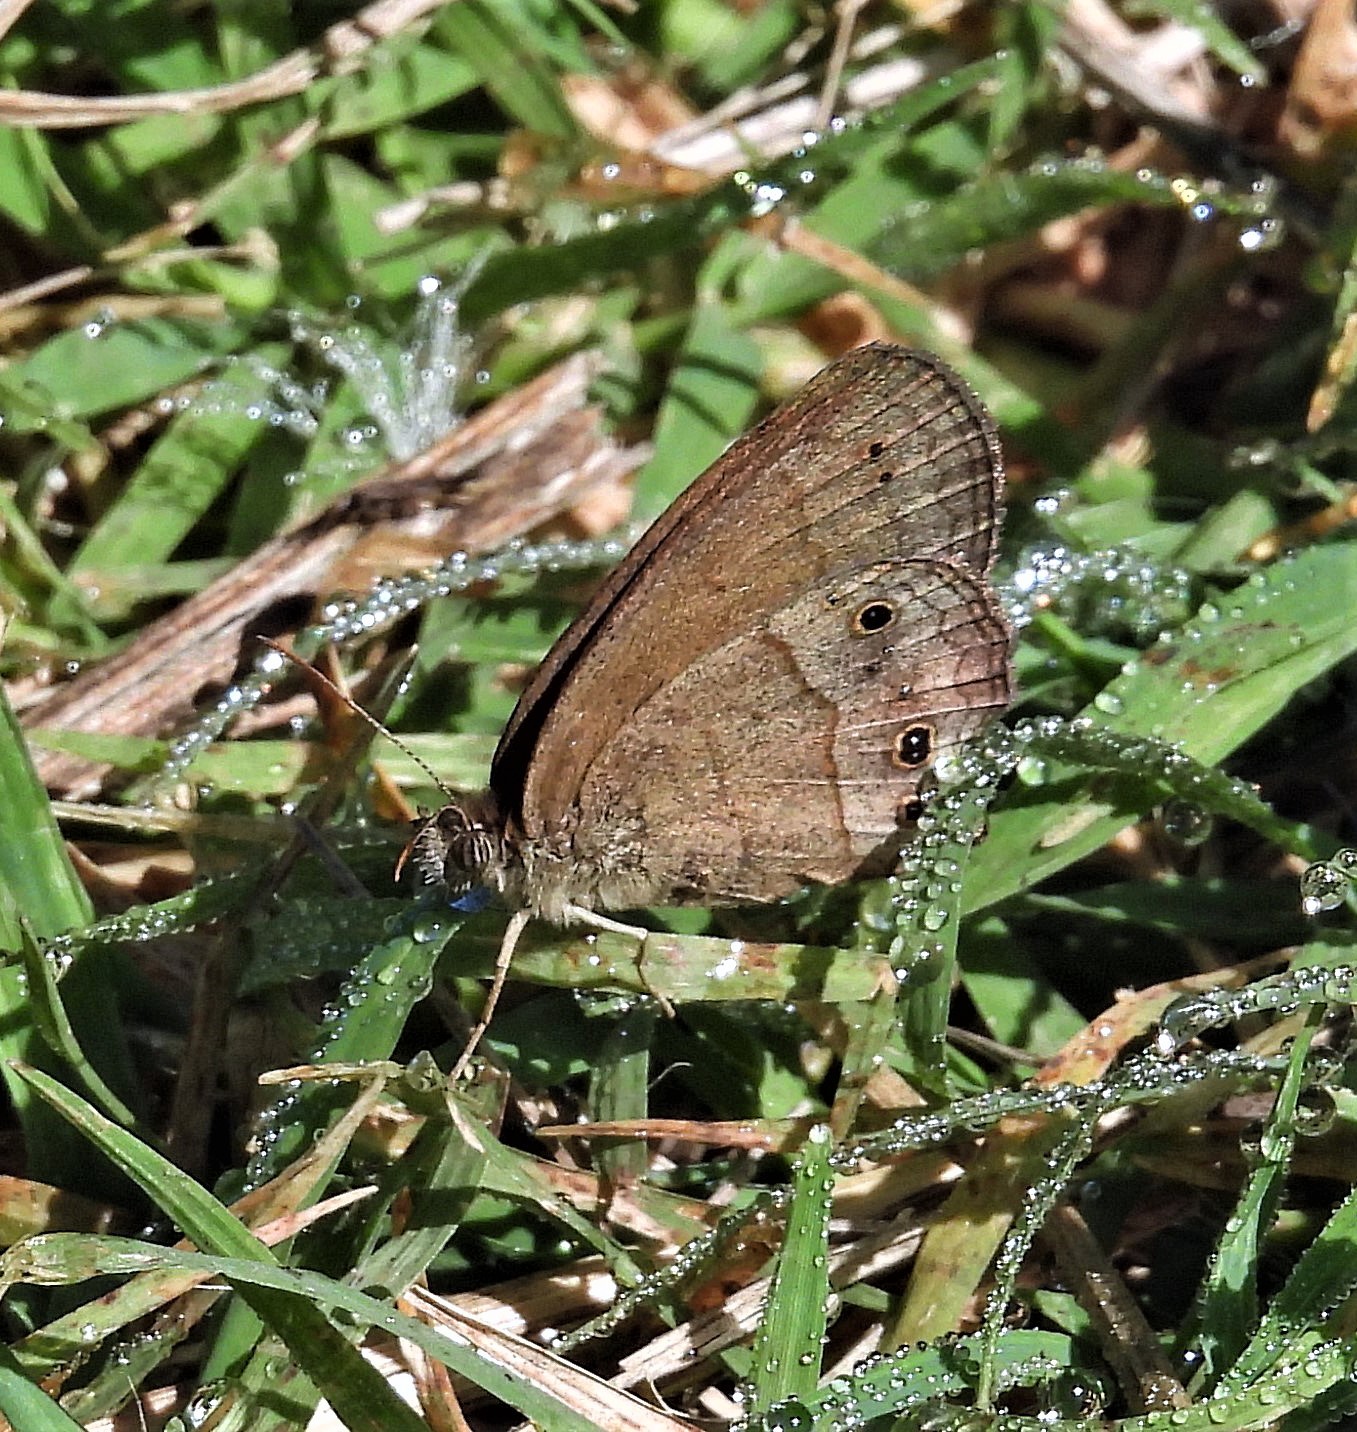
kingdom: Animalia
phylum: Arthropoda
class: Insecta
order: Lepidoptera
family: Nymphalidae
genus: Yphthimoides
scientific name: Yphthimoides celmis
